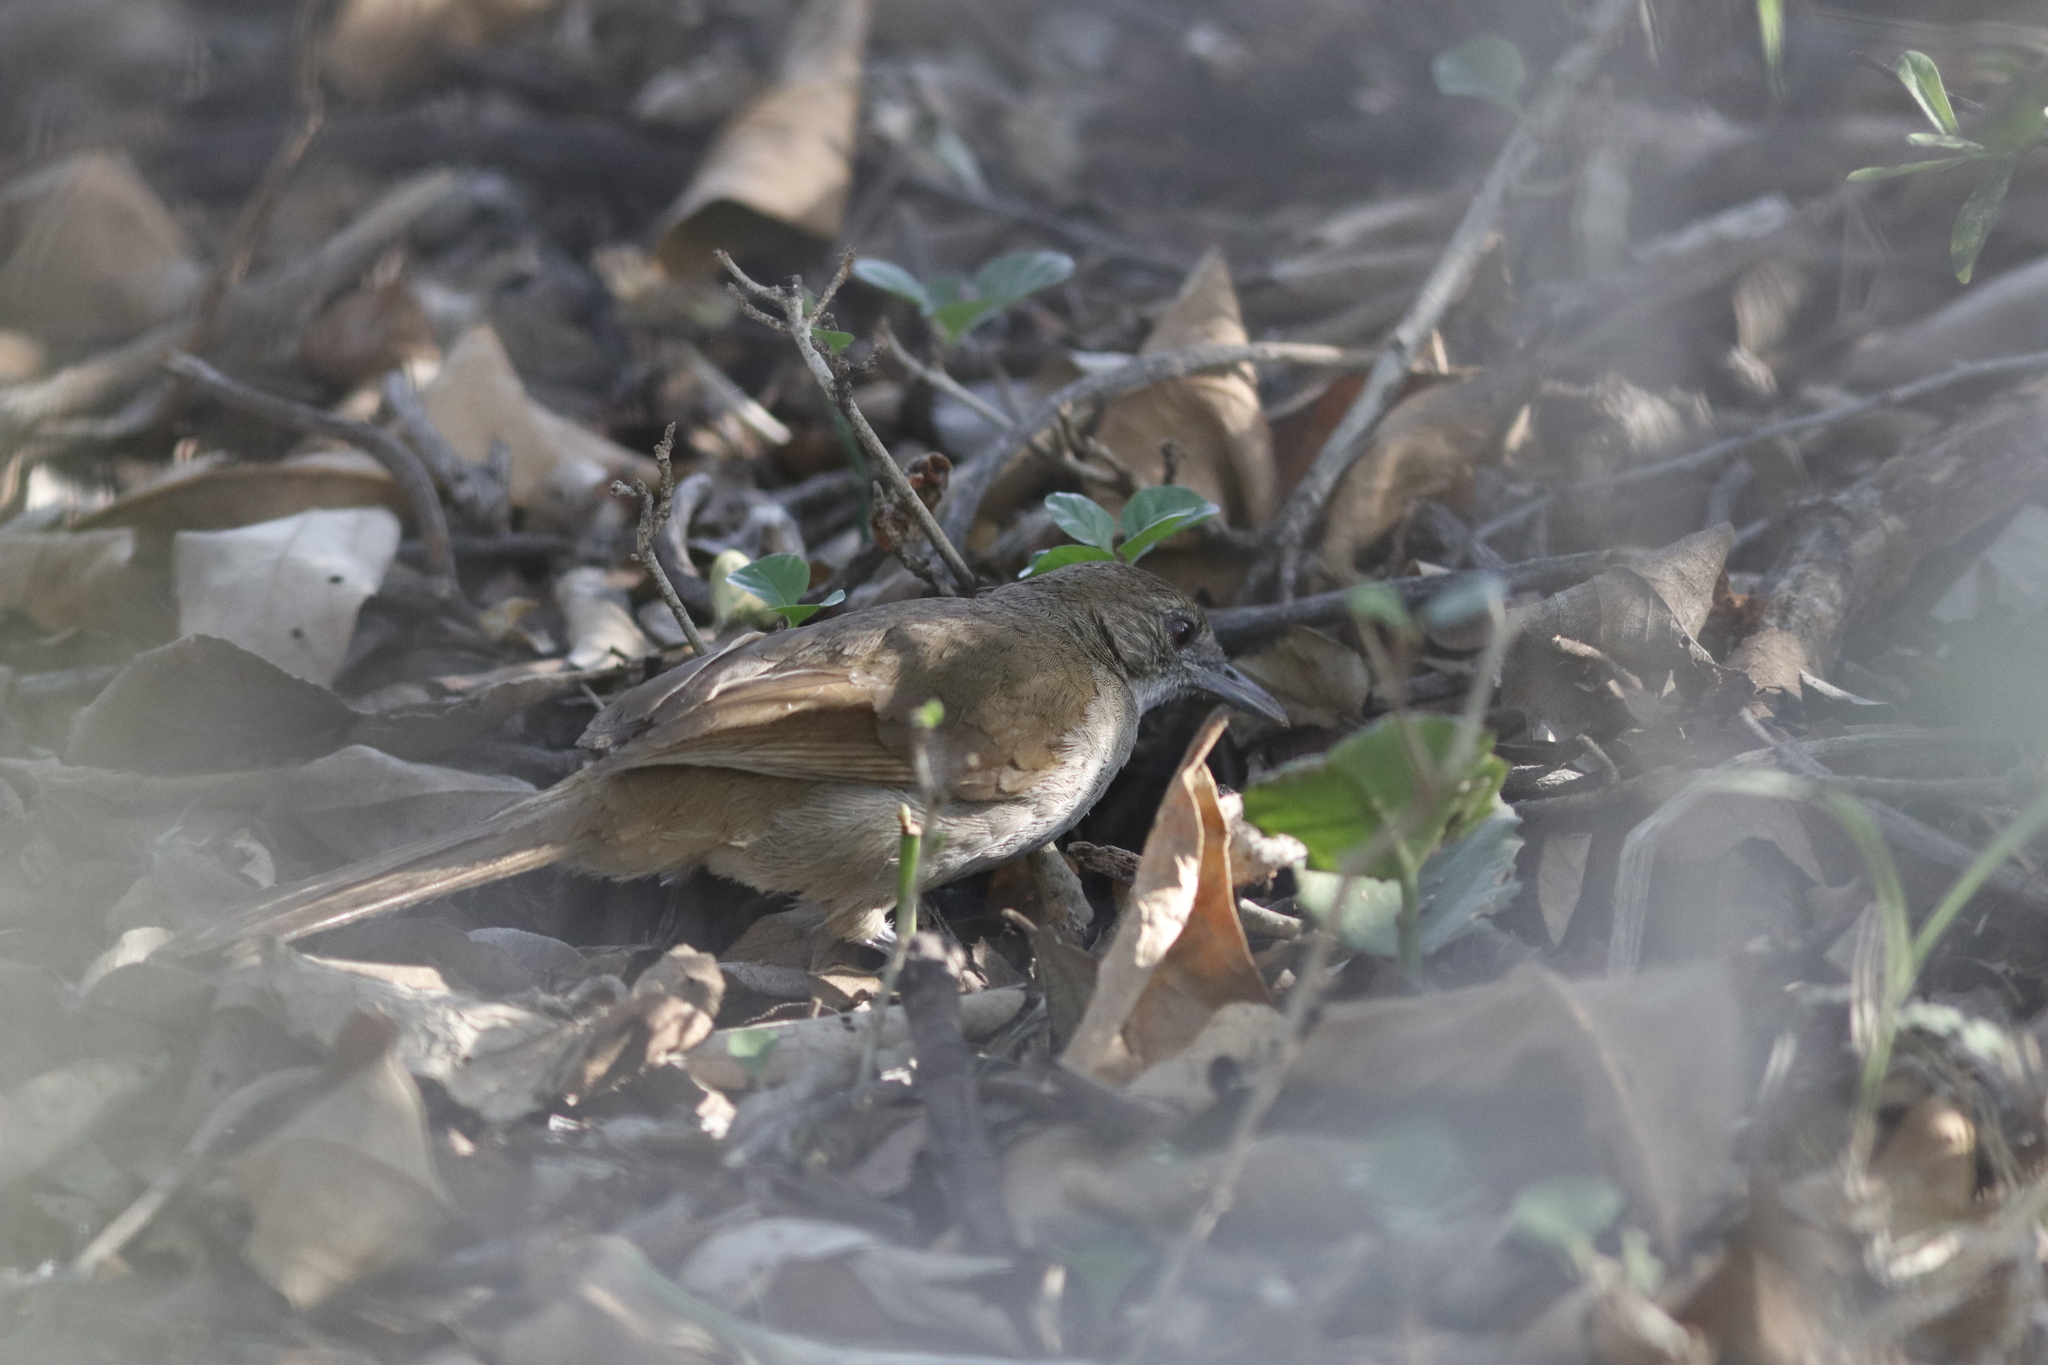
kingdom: Animalia
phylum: Chordata
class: Aves
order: Passeriformes
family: Pycnonotidae
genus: Phyllastrephus
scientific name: Phyllastrephus terrestris
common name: Terrestrial brownbul
